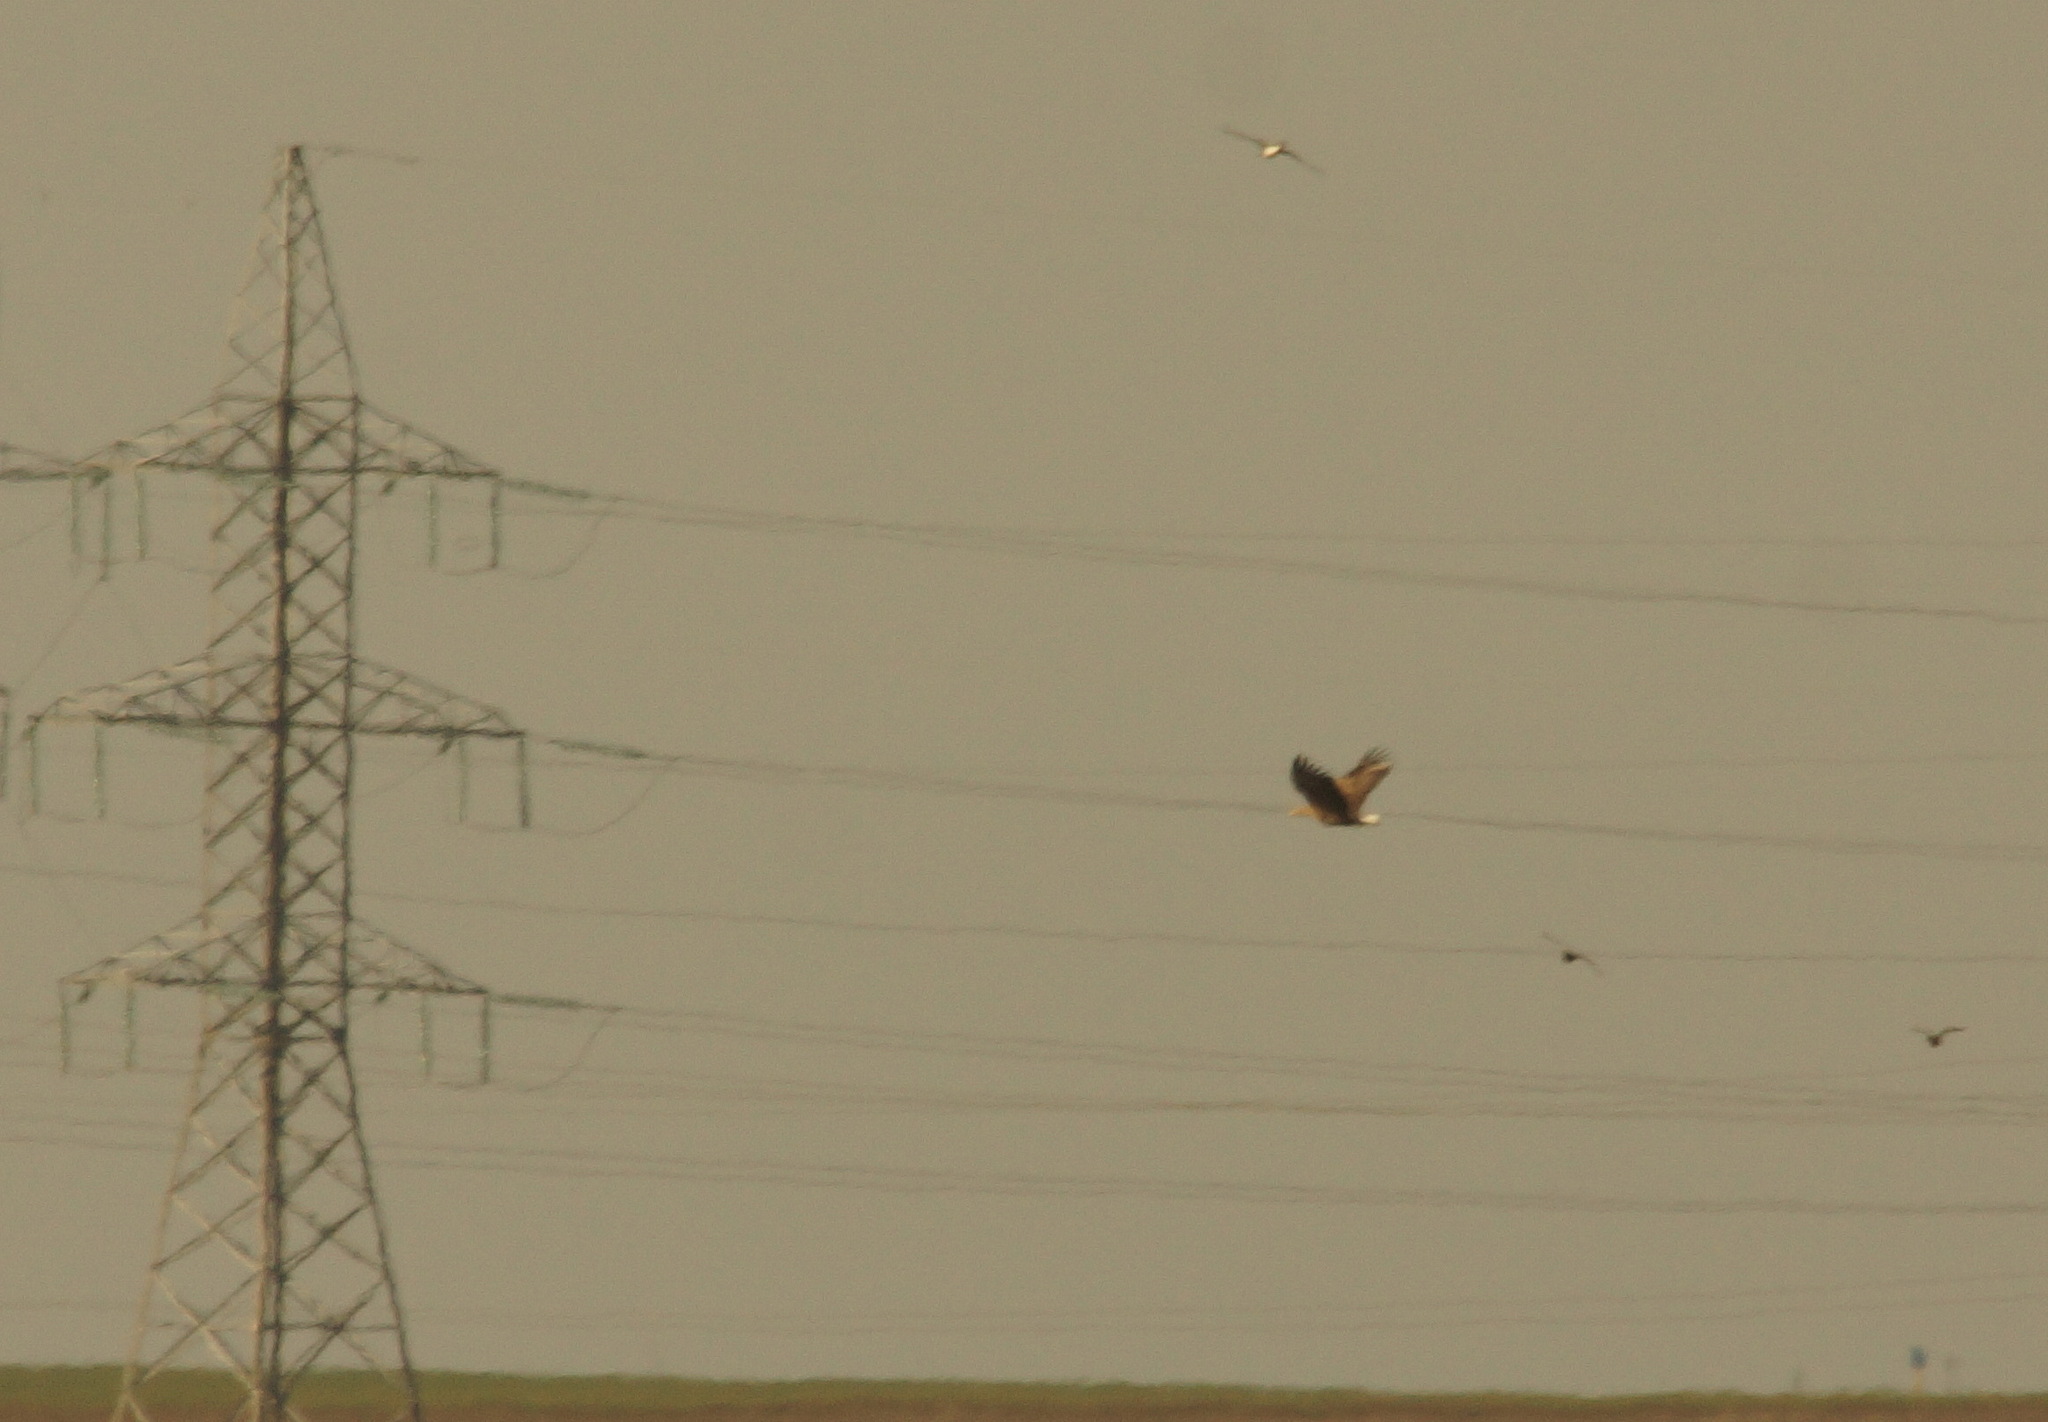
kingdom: Animalia
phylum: Chordata
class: Aves
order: Accipitriformes
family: Accipitridae
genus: Haliaeetus
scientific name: Haliaeetus albicilla
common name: White-tailed eagle
